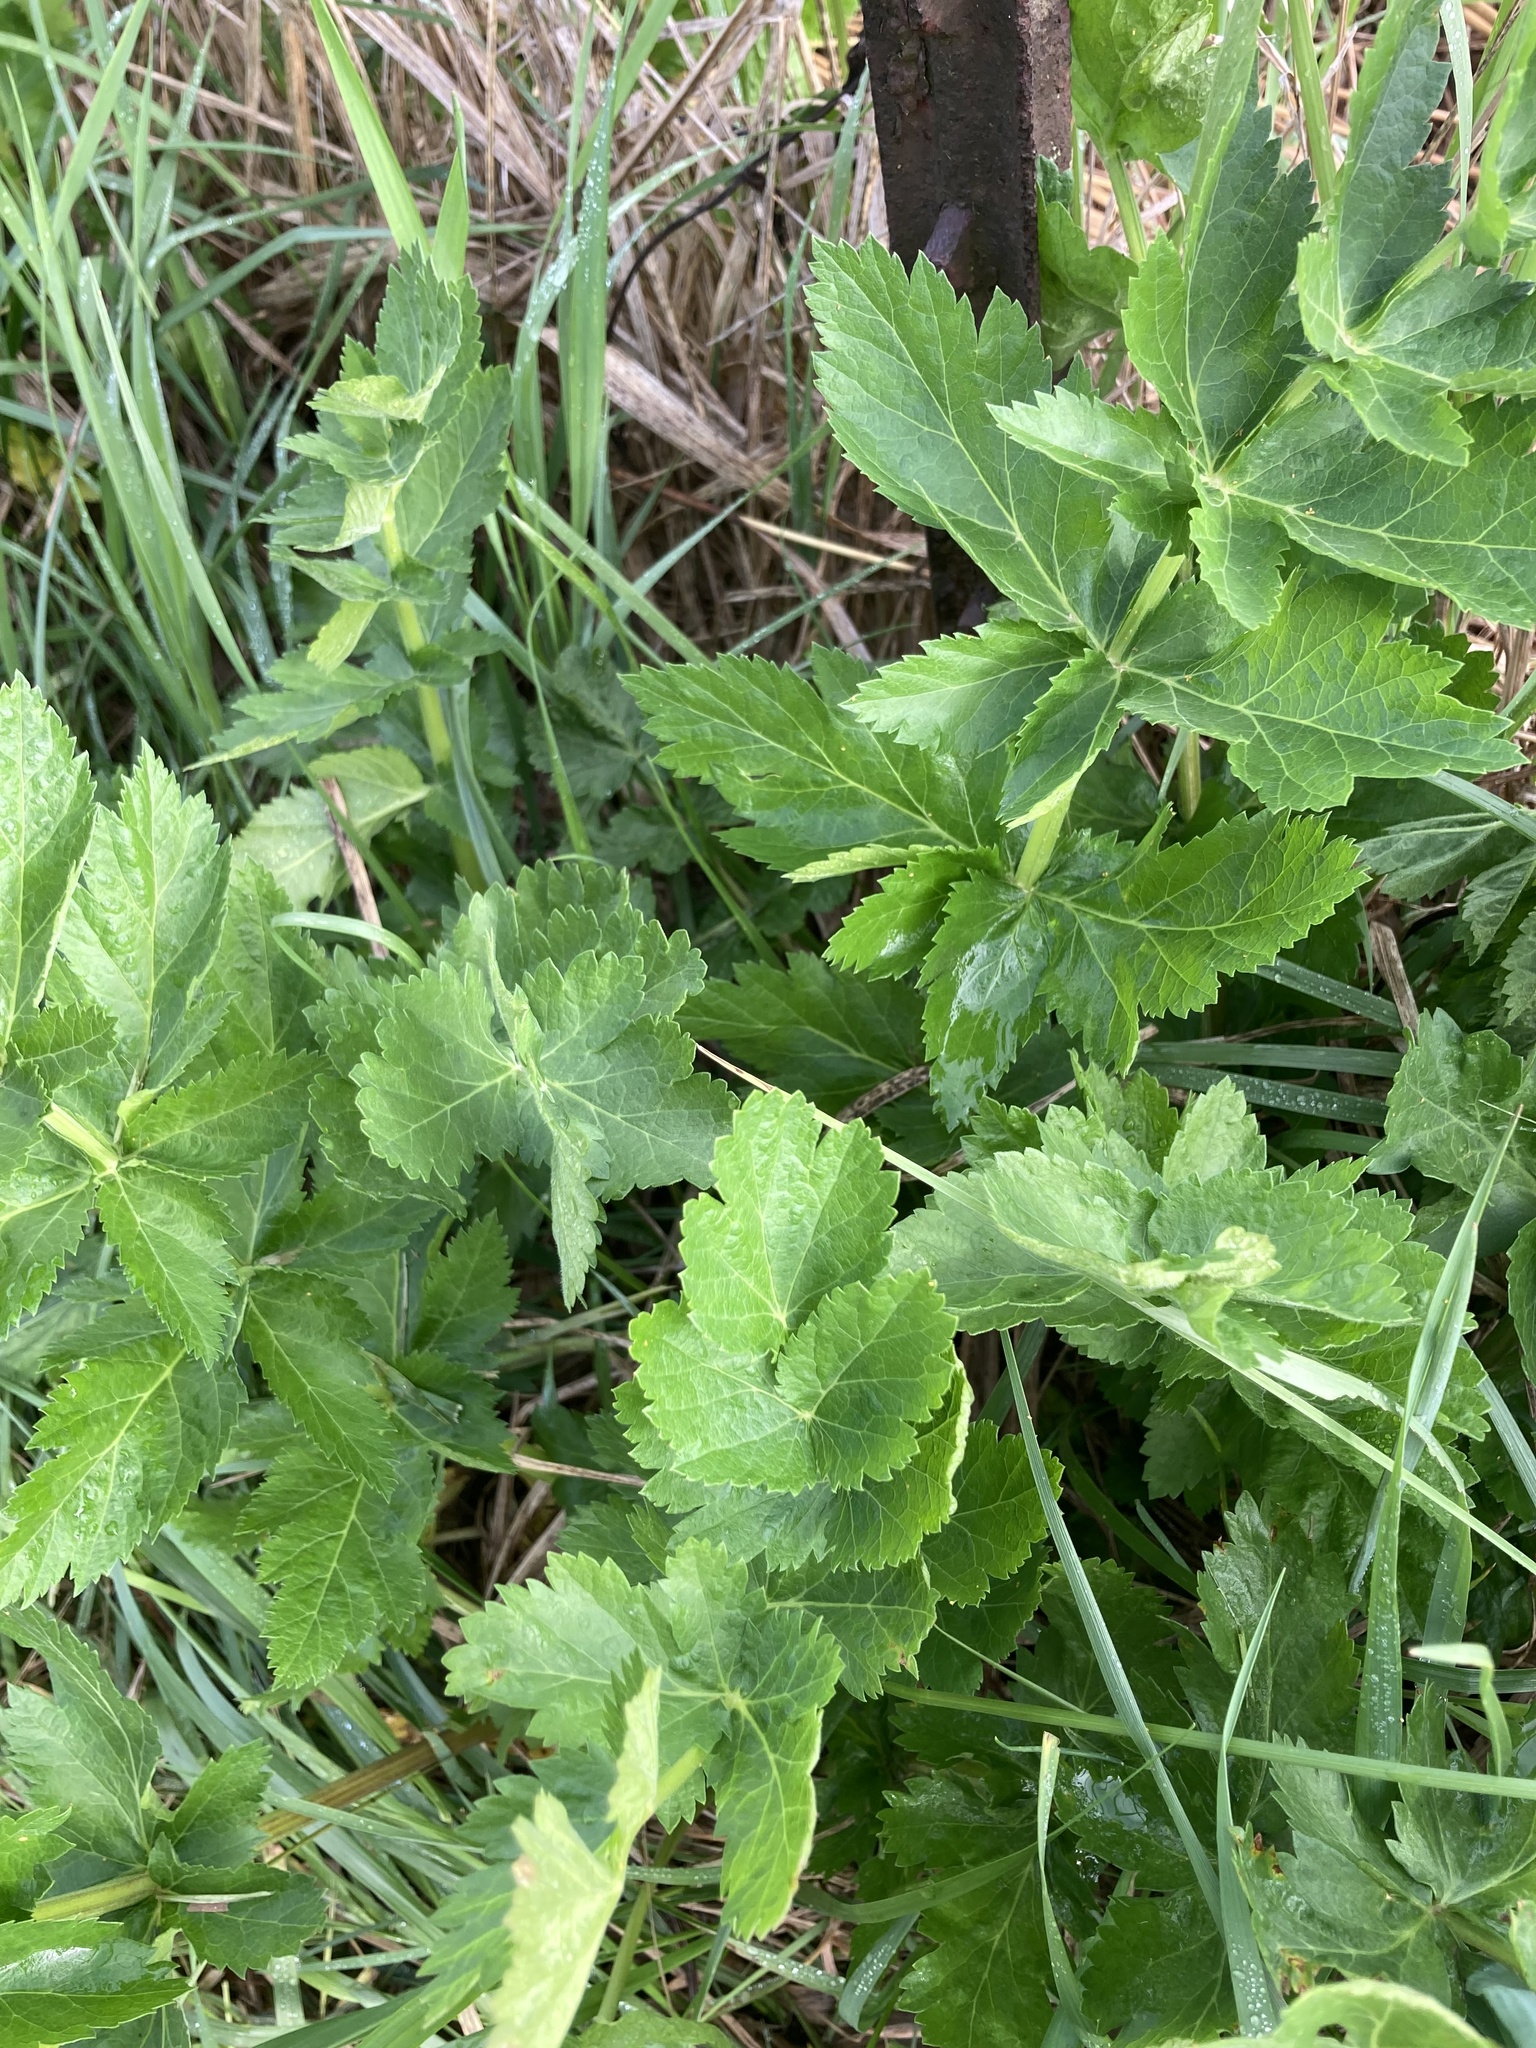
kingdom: Plantae
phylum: Tracheophyta
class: Magnoliopsida
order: Apiales
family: Apiaceae
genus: Pastinaca
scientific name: Pastinaca sativa
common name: Wild parsnip
